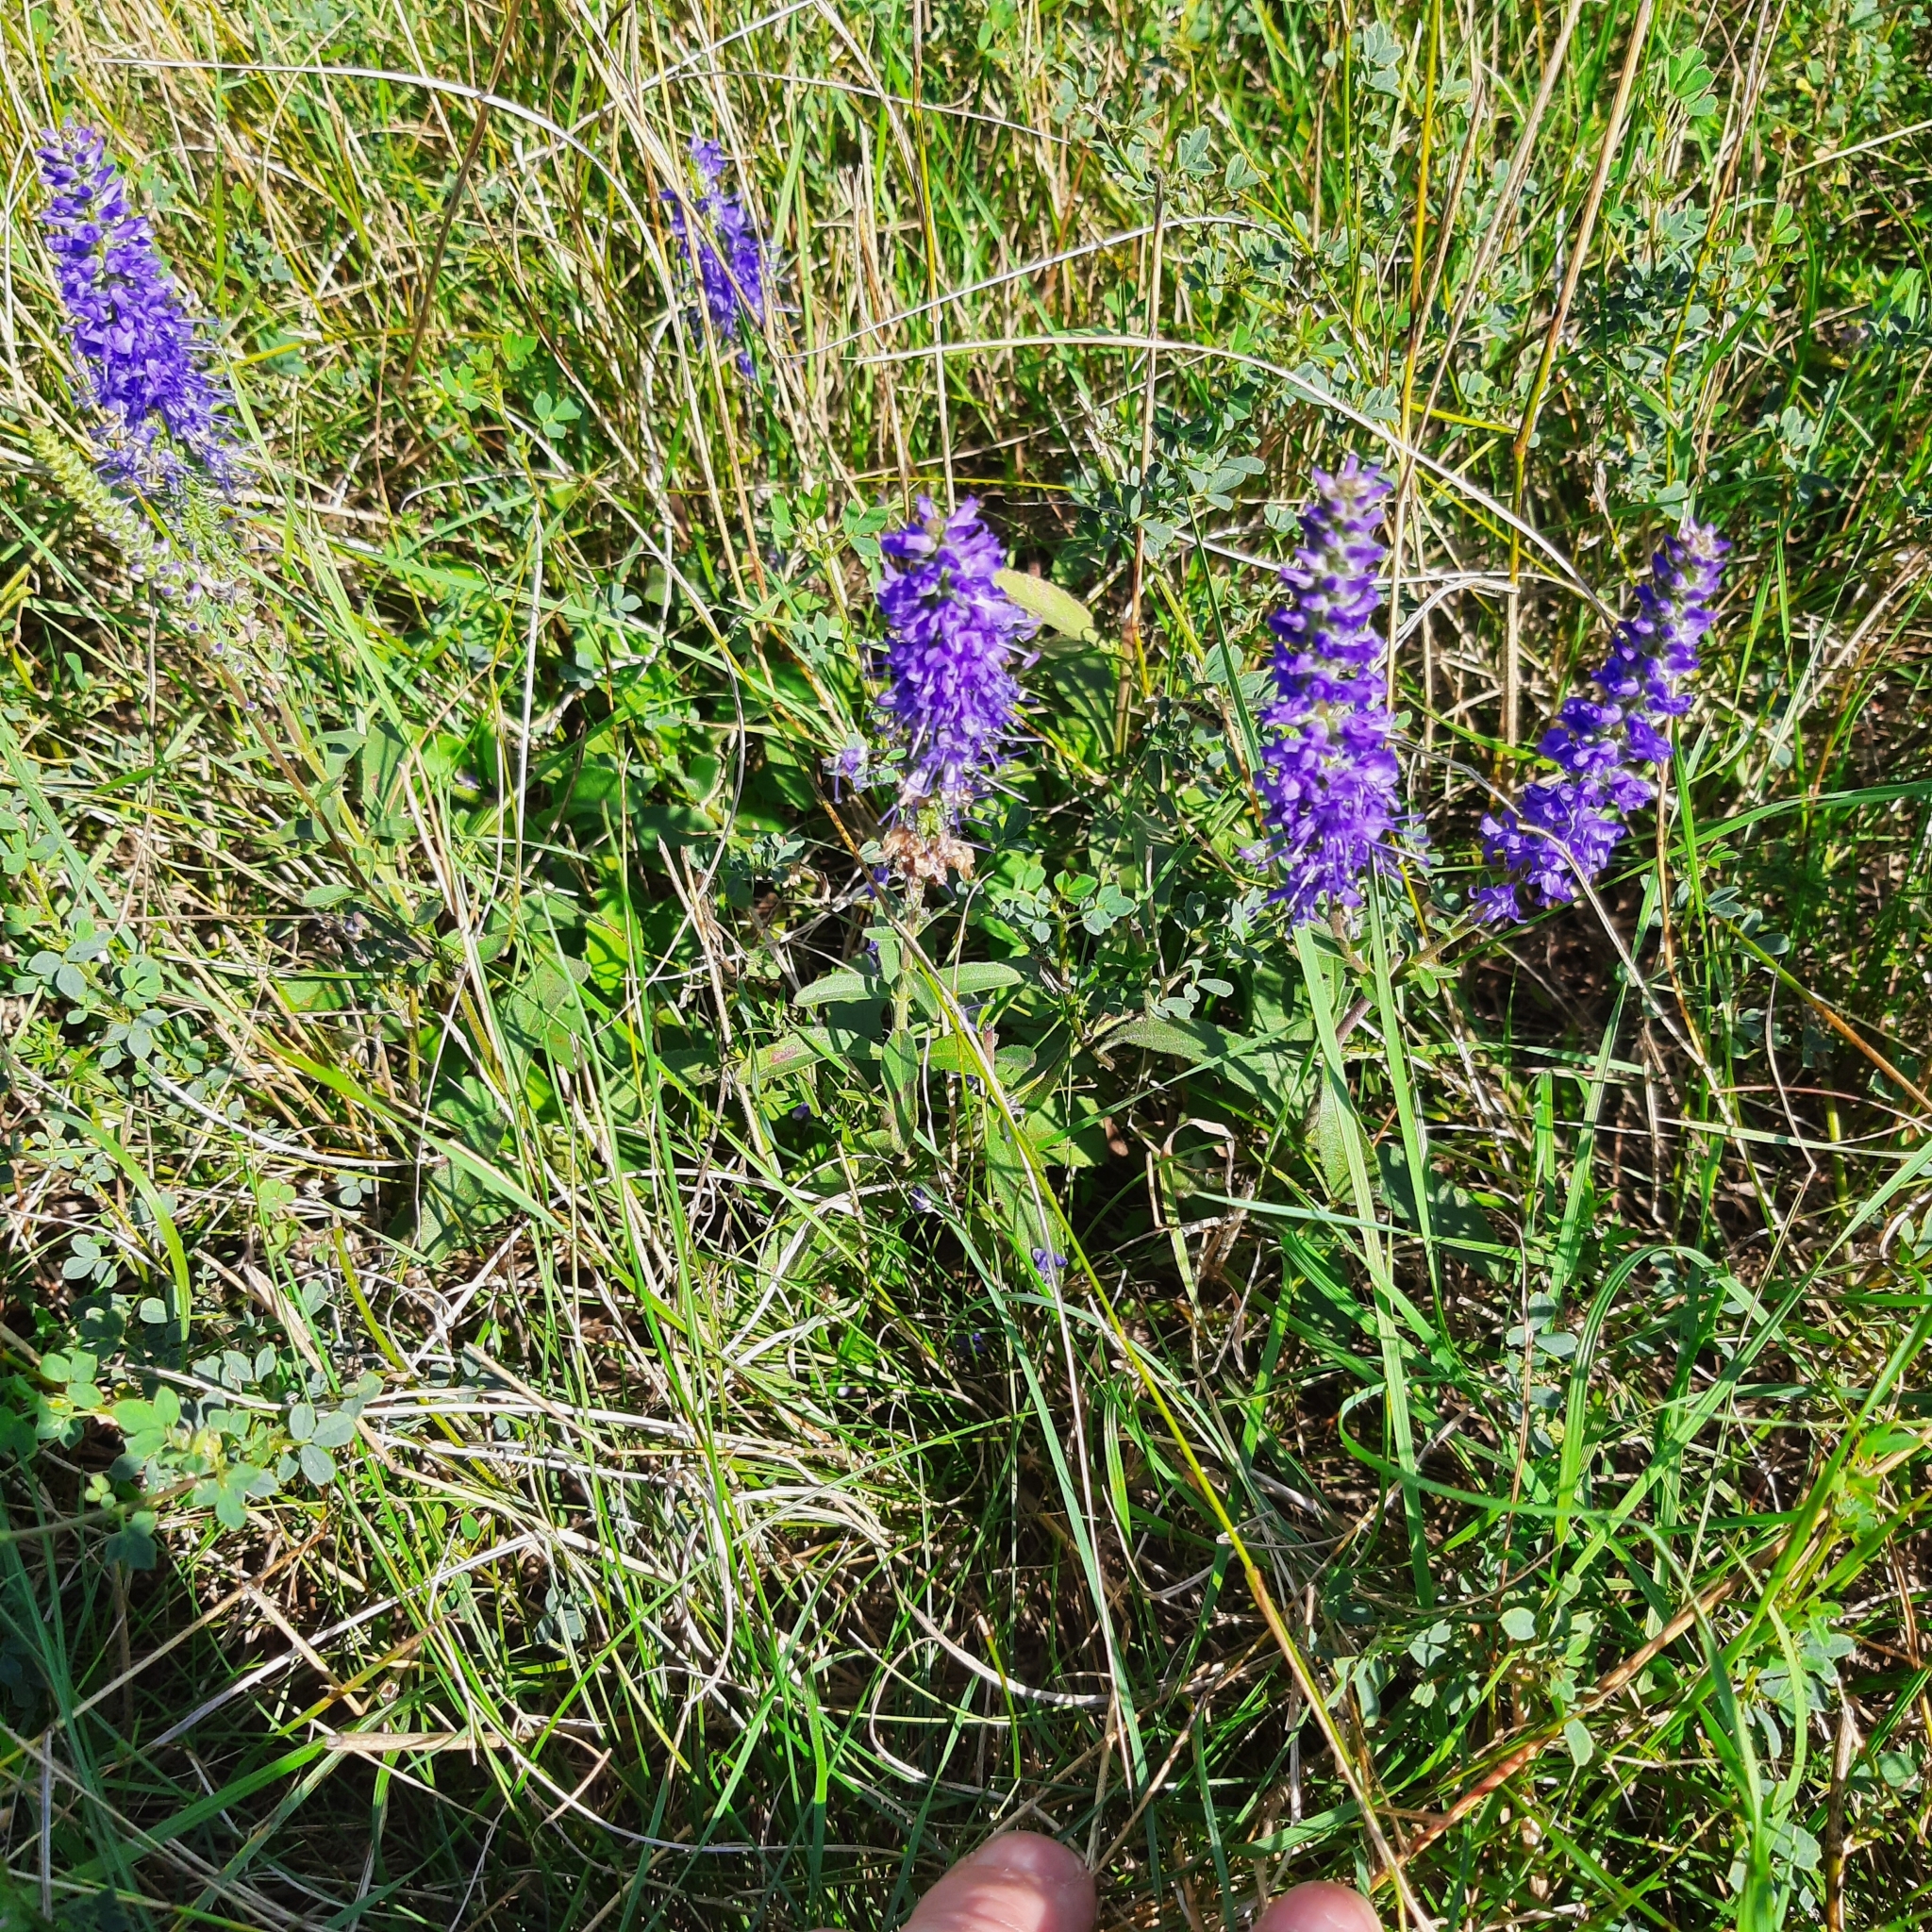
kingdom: Plantae
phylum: Tracheophyta
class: Magnoliopsida
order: Lamiales
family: Plantaginaceae
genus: Veronica
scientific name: Veronica spicata
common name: Spiked speedwell
